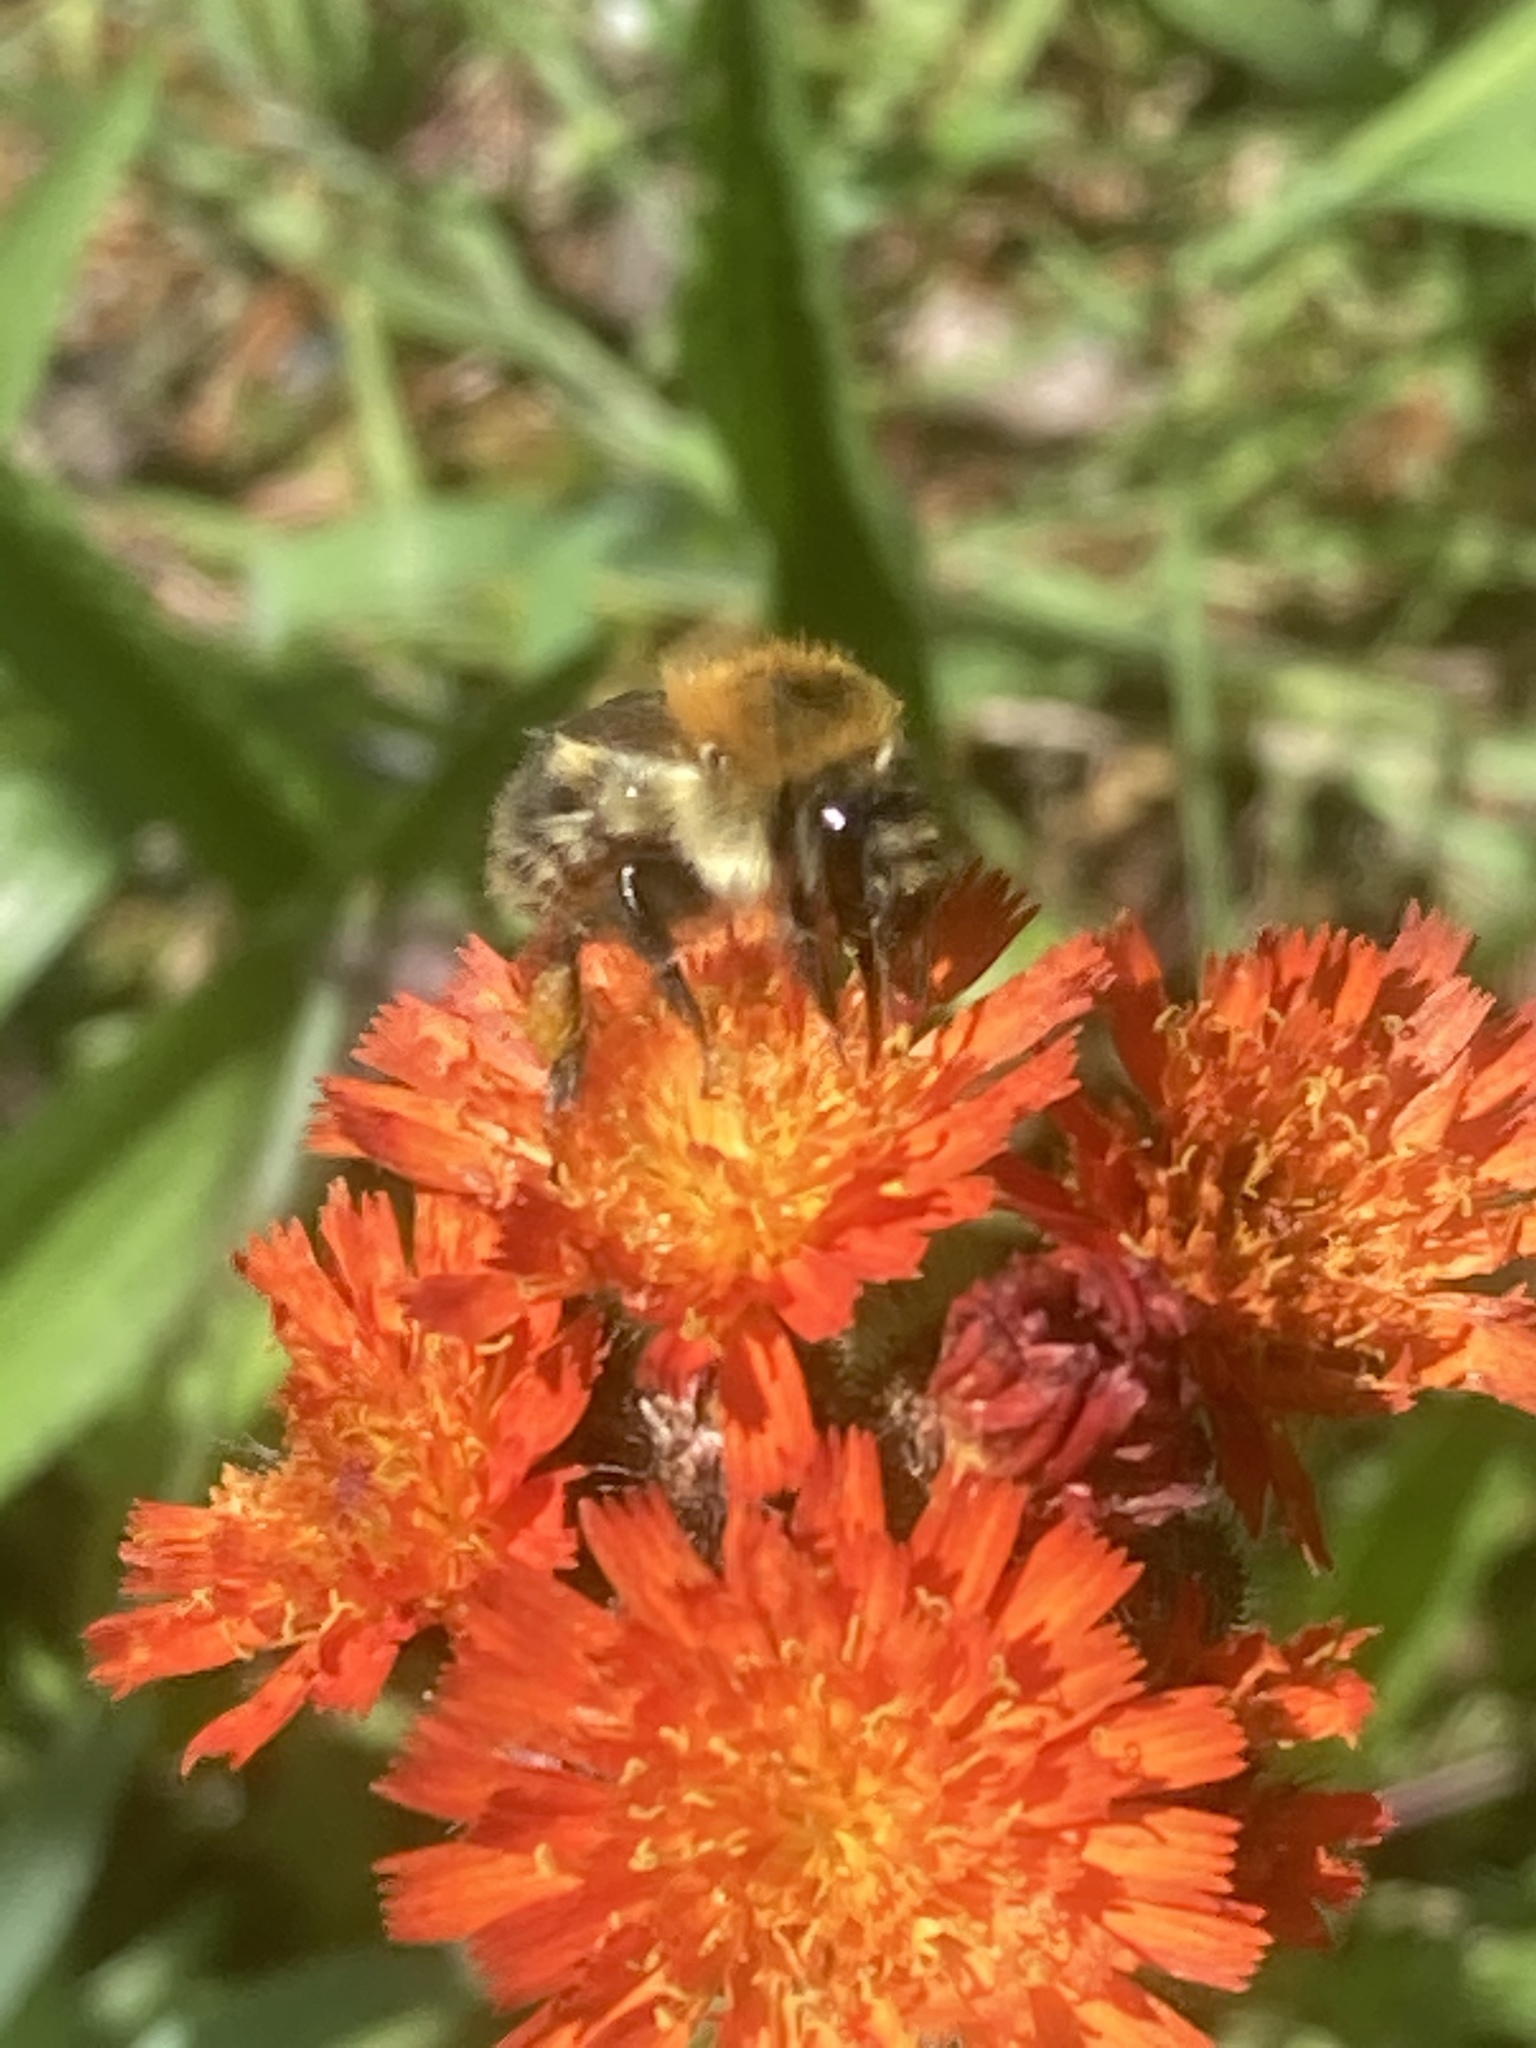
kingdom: Animalia
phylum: Arthropoda
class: Insecta
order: Hymenoptera
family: Apidae
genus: Bombus
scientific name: Bombus pascuorum
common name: Common carder bee
